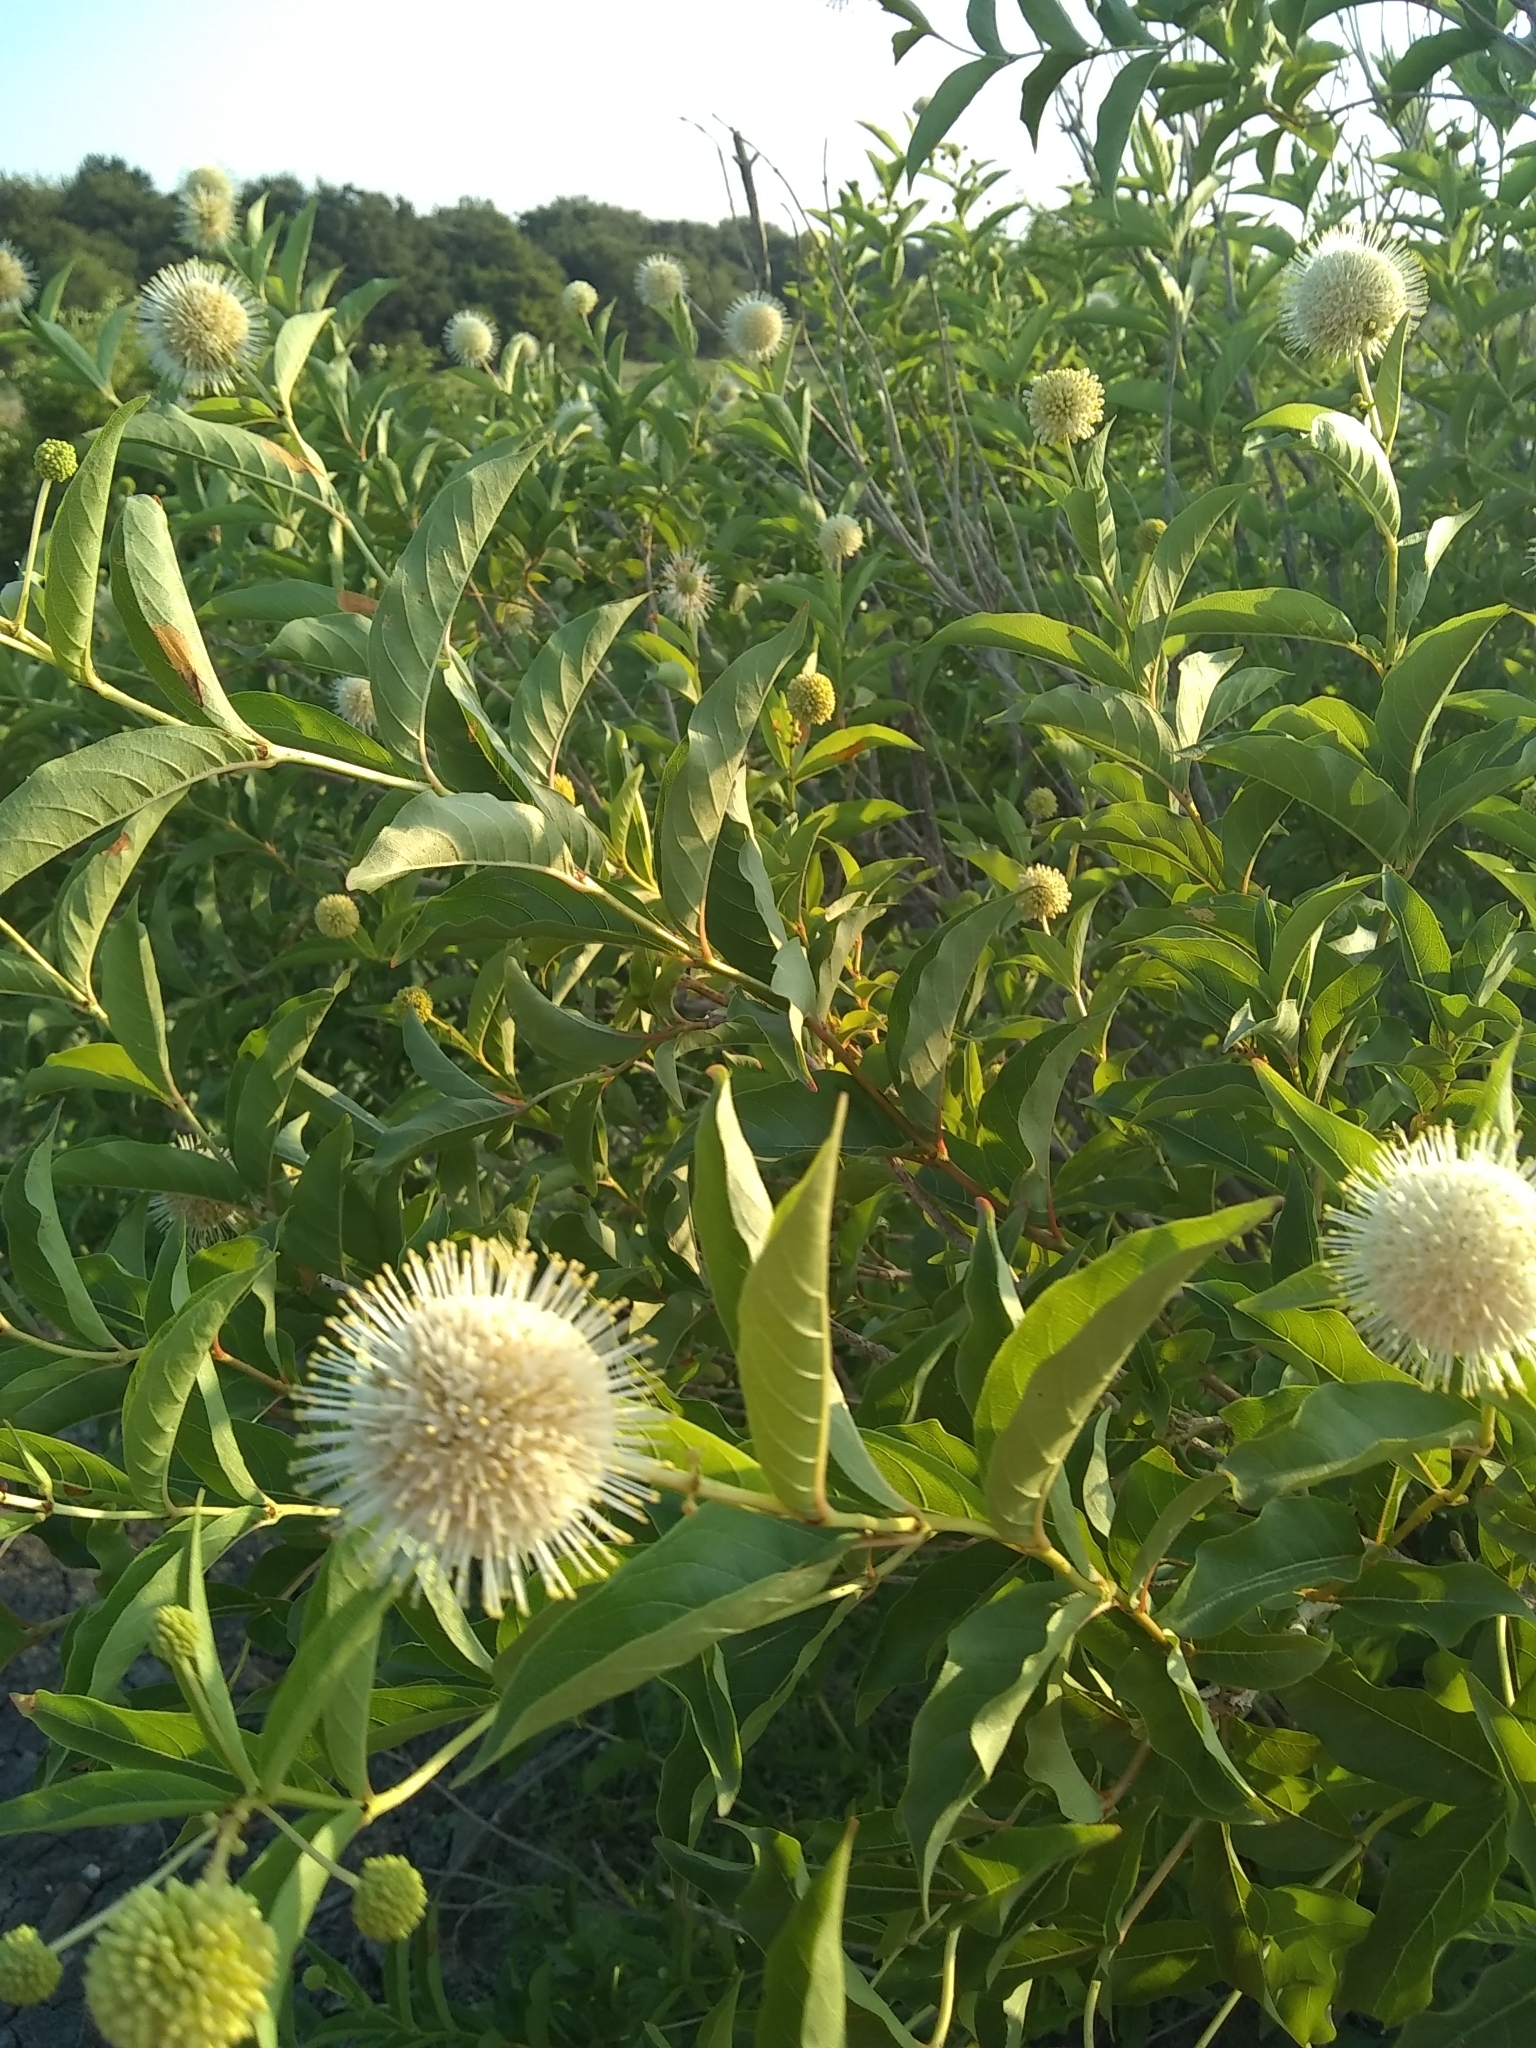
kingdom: Plantae
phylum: Tracheophyta
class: Magnoliopsida
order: Gentianales
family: Rubiaceae
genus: Cephalanthus
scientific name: Cephalanthus occidentalis
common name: Button-willow
